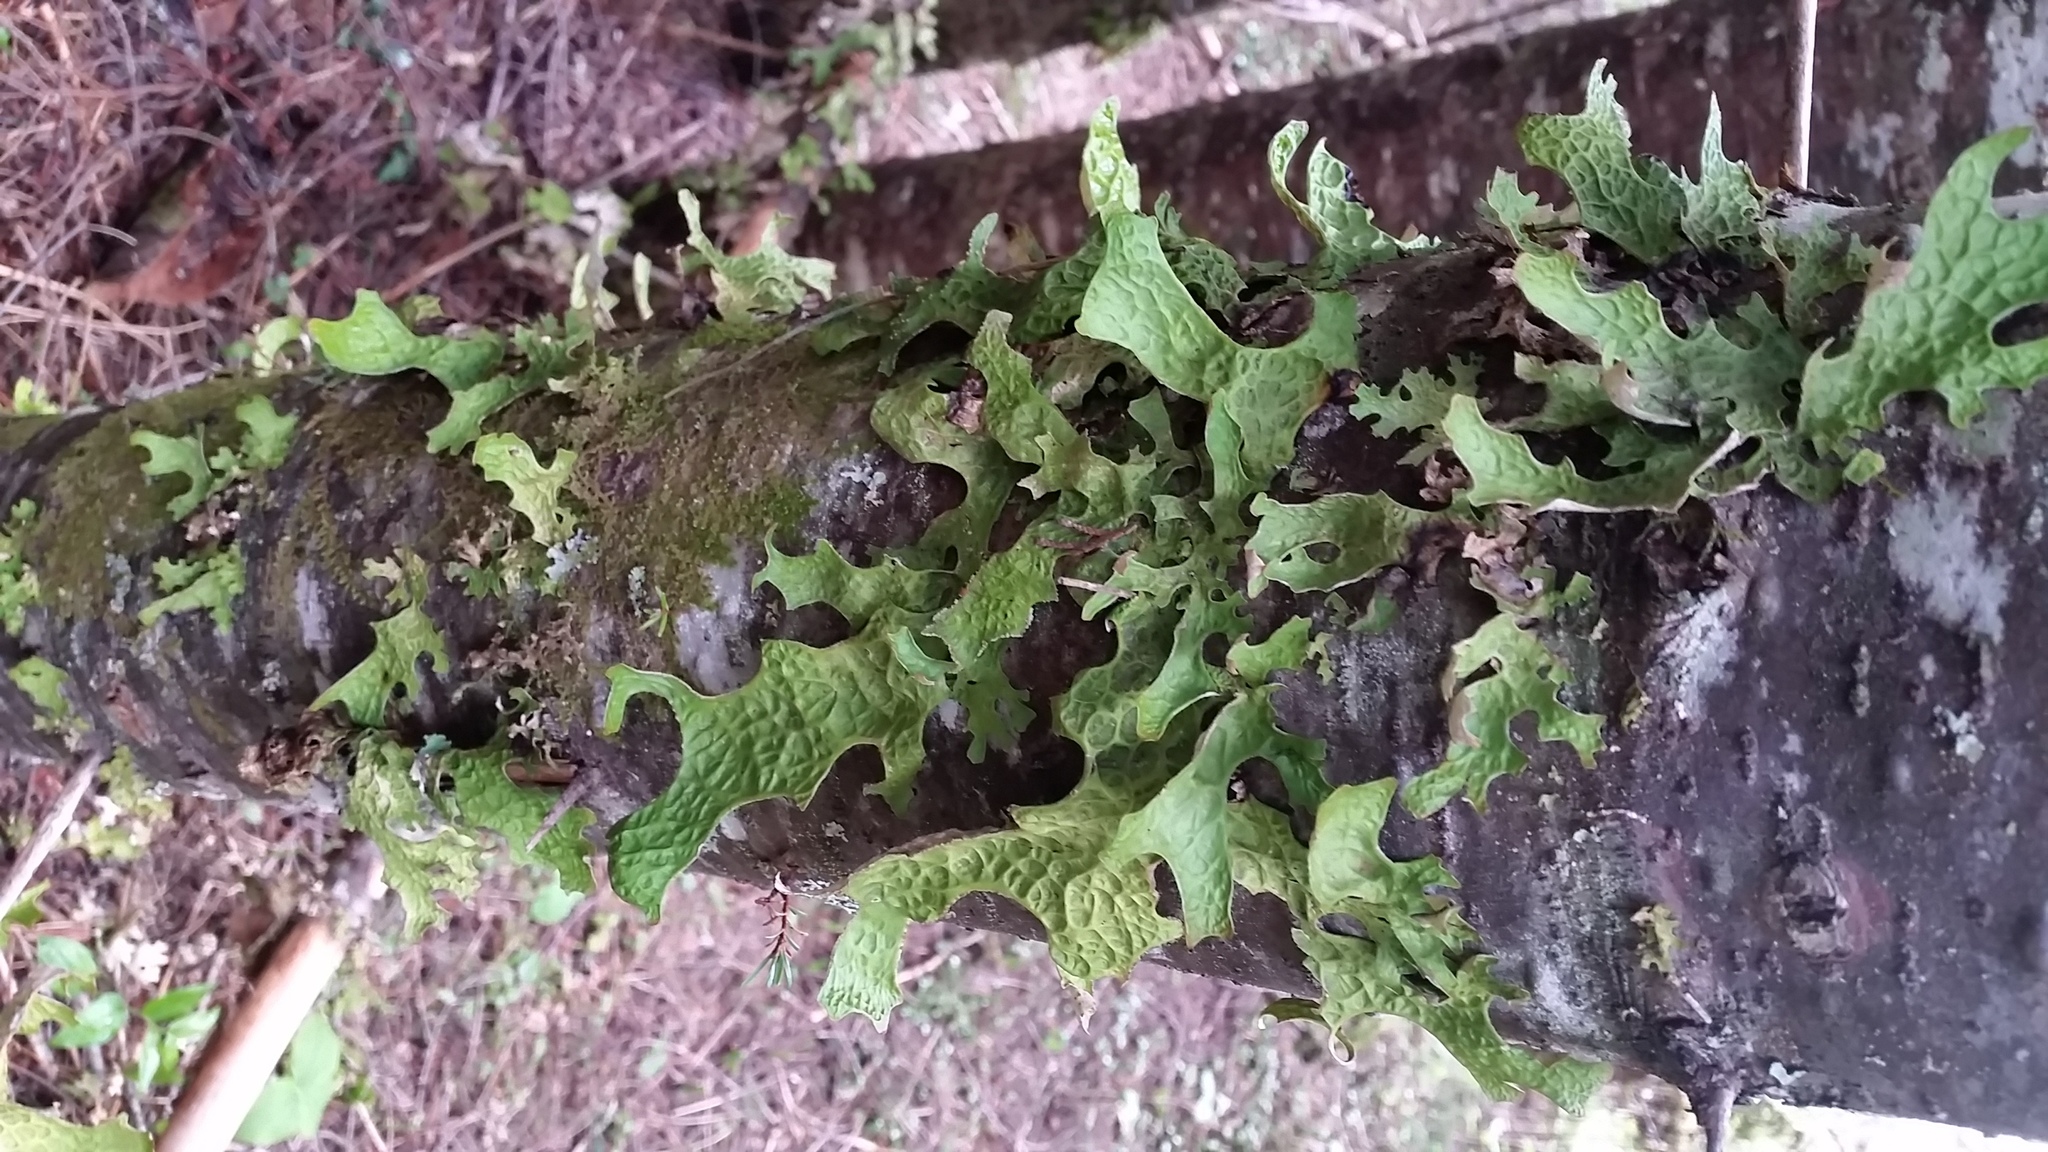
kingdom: Fungi
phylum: Ascomycota
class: Lecanoromycetes
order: Peltigerales
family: Lobariaceae
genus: Lobaria
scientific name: Lobaria pulmonaria
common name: Lungwort
